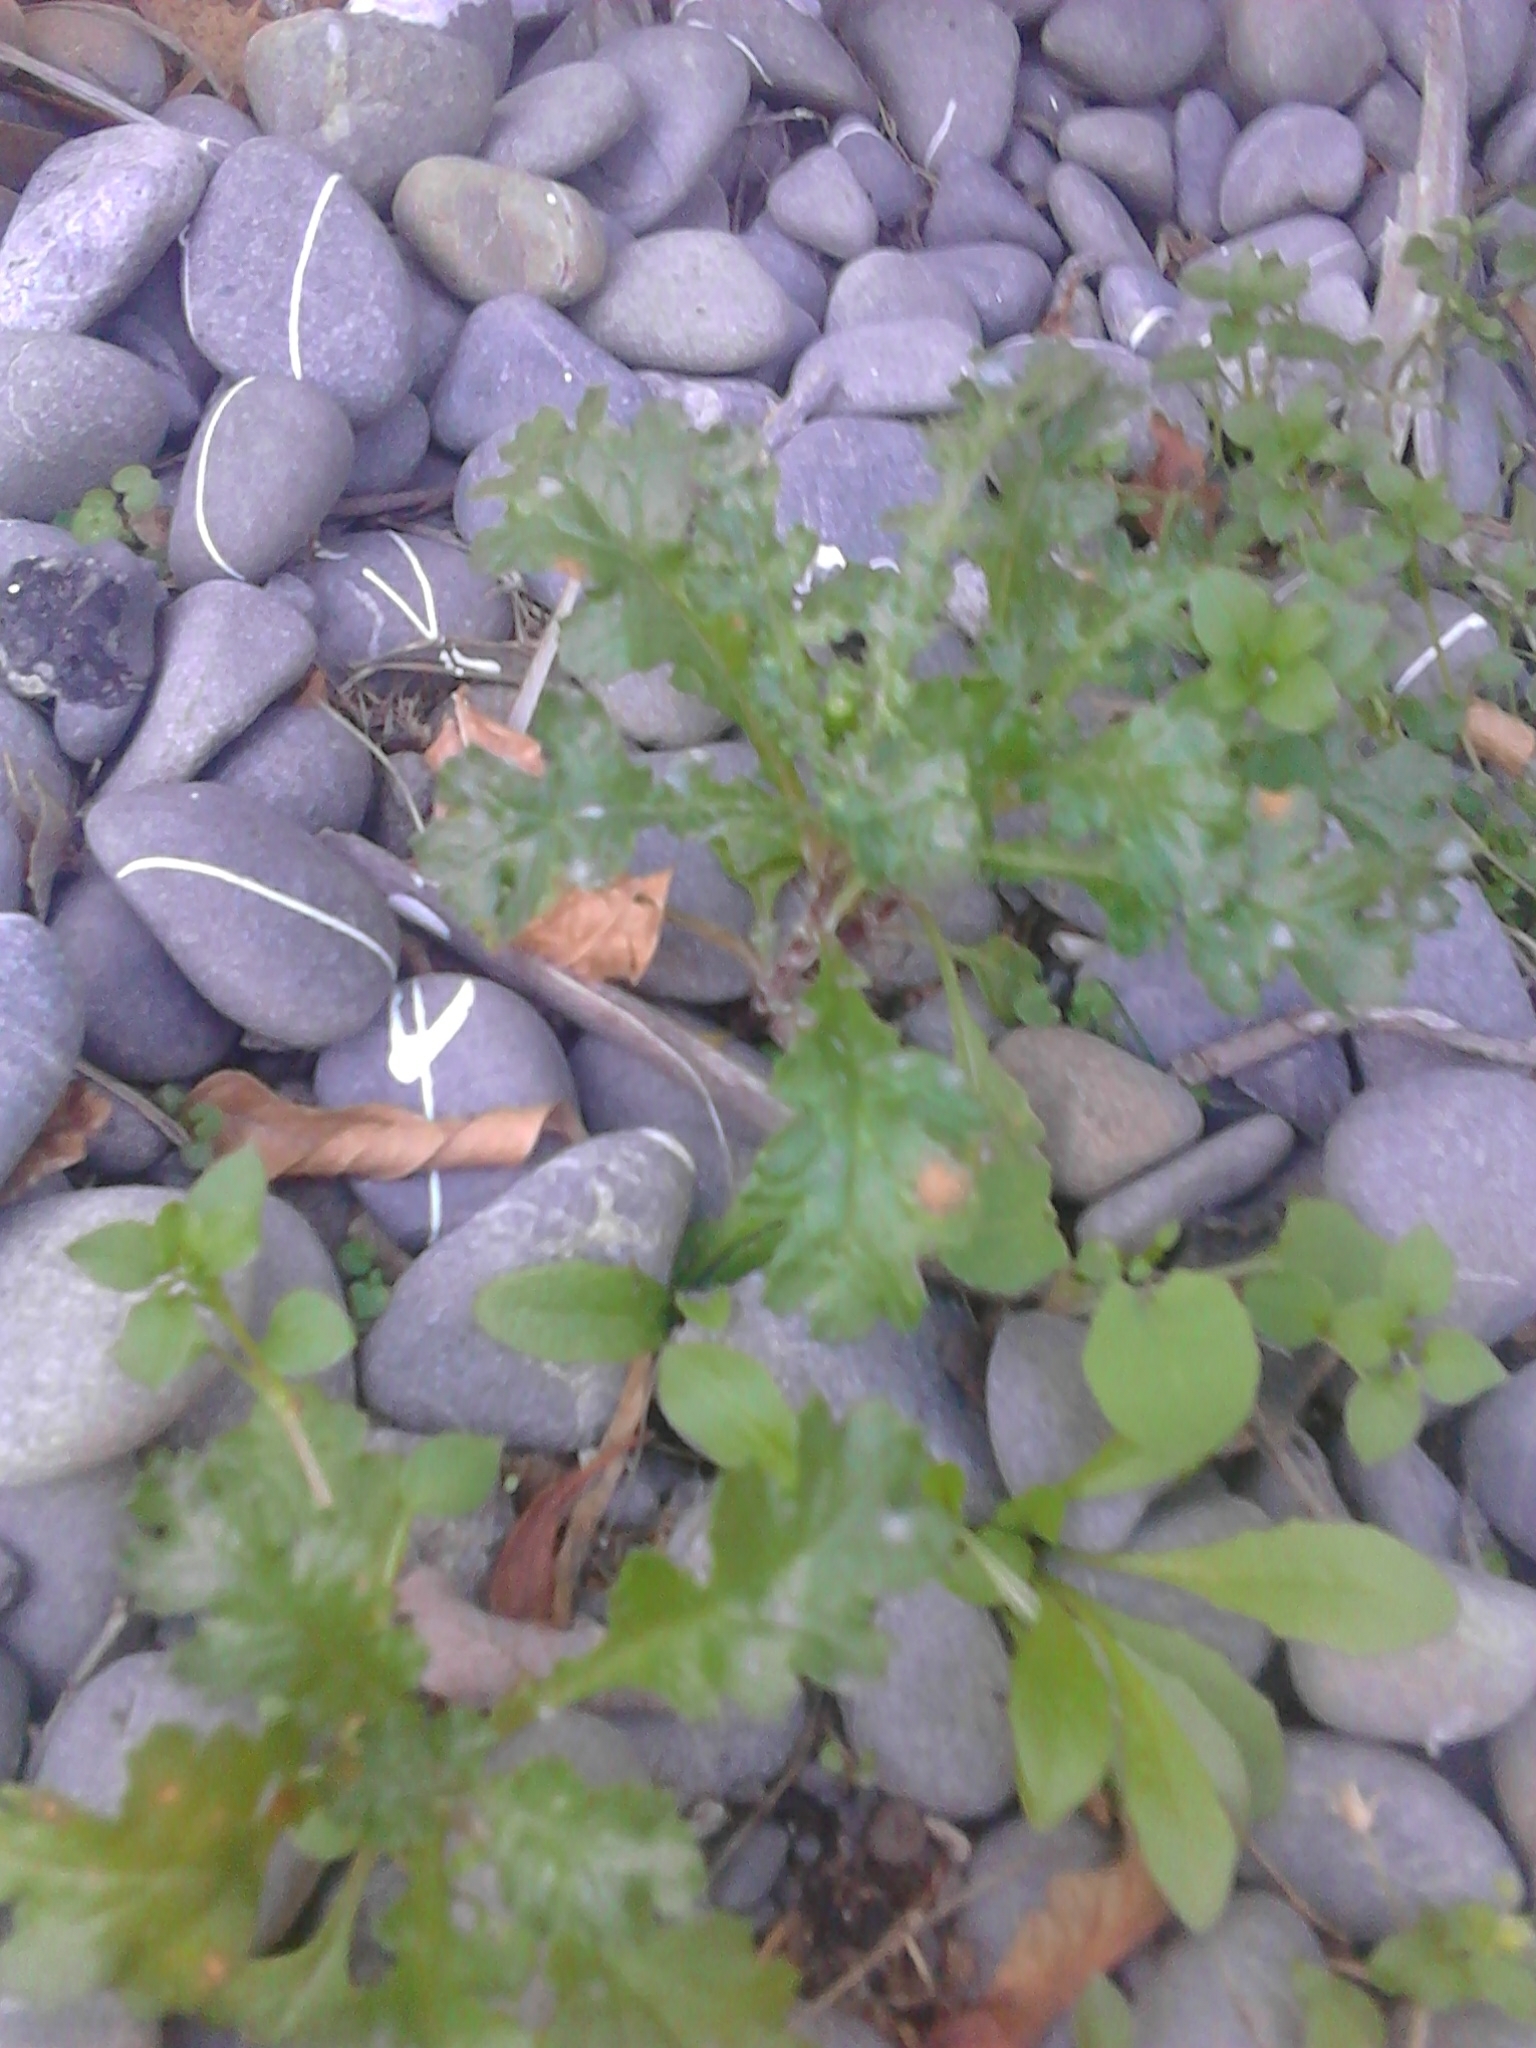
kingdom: Plantae
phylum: Tracheophyta
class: Magnoliopsida
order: Asterales
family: Asteraceae
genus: Senecio
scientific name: Senecio vulgaris
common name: Old-man-in-the-spring
